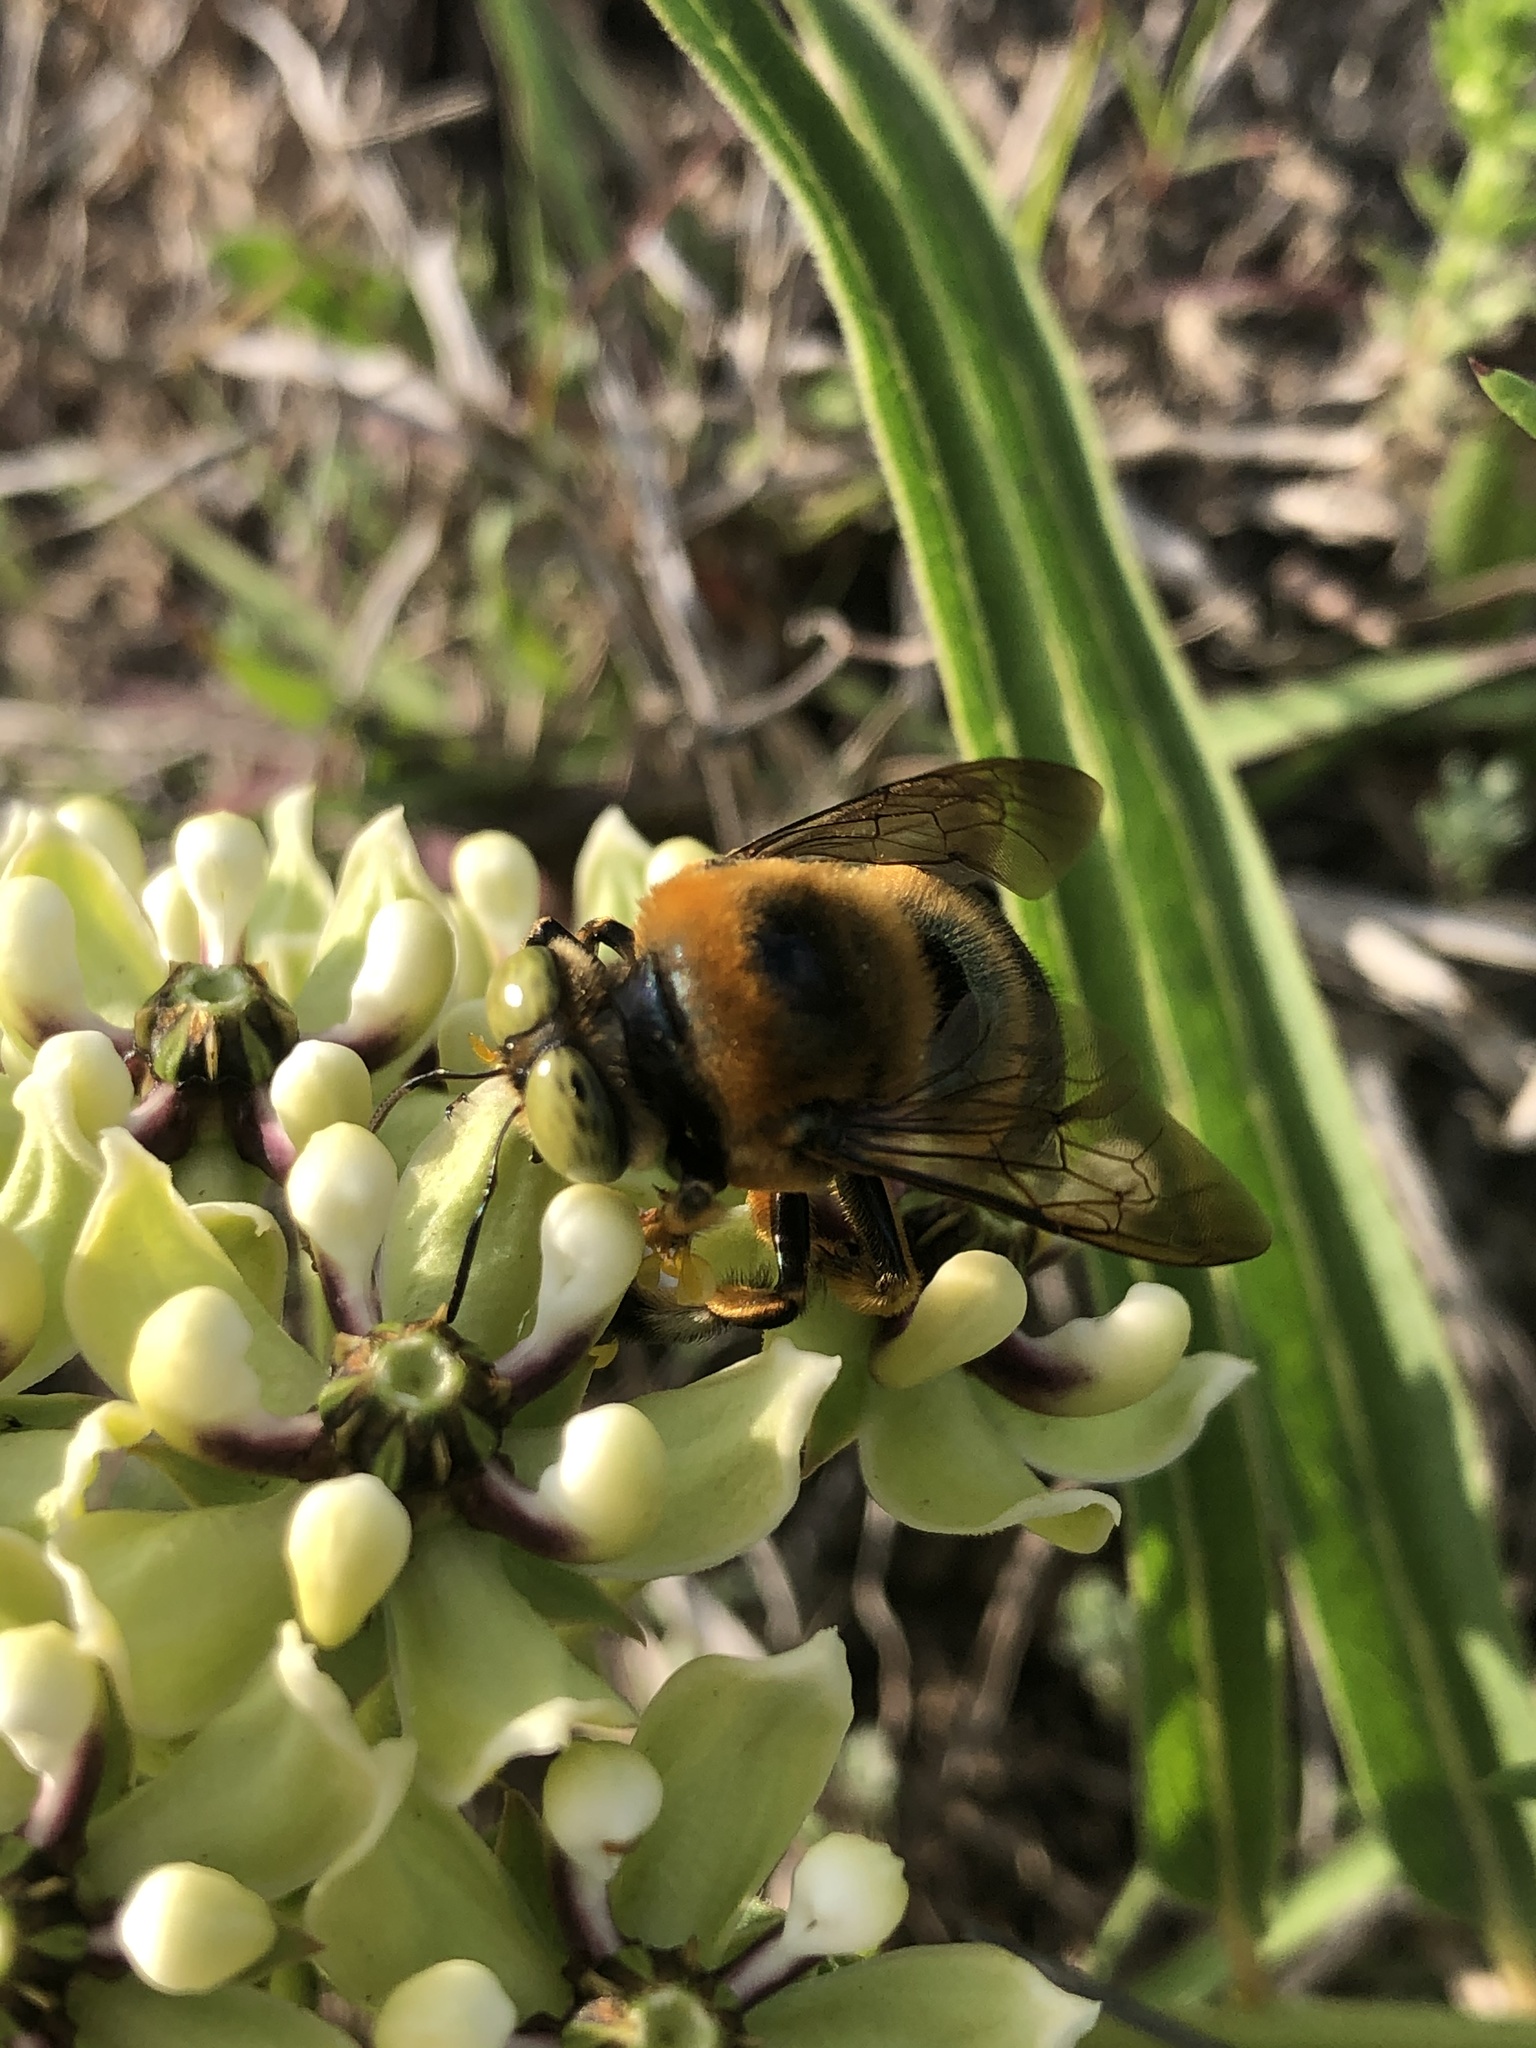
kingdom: Animalia
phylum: Arthropoda
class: Insecta
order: Hymenoptera
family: Apidae
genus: Xylocopa
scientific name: Xylocopa micans
